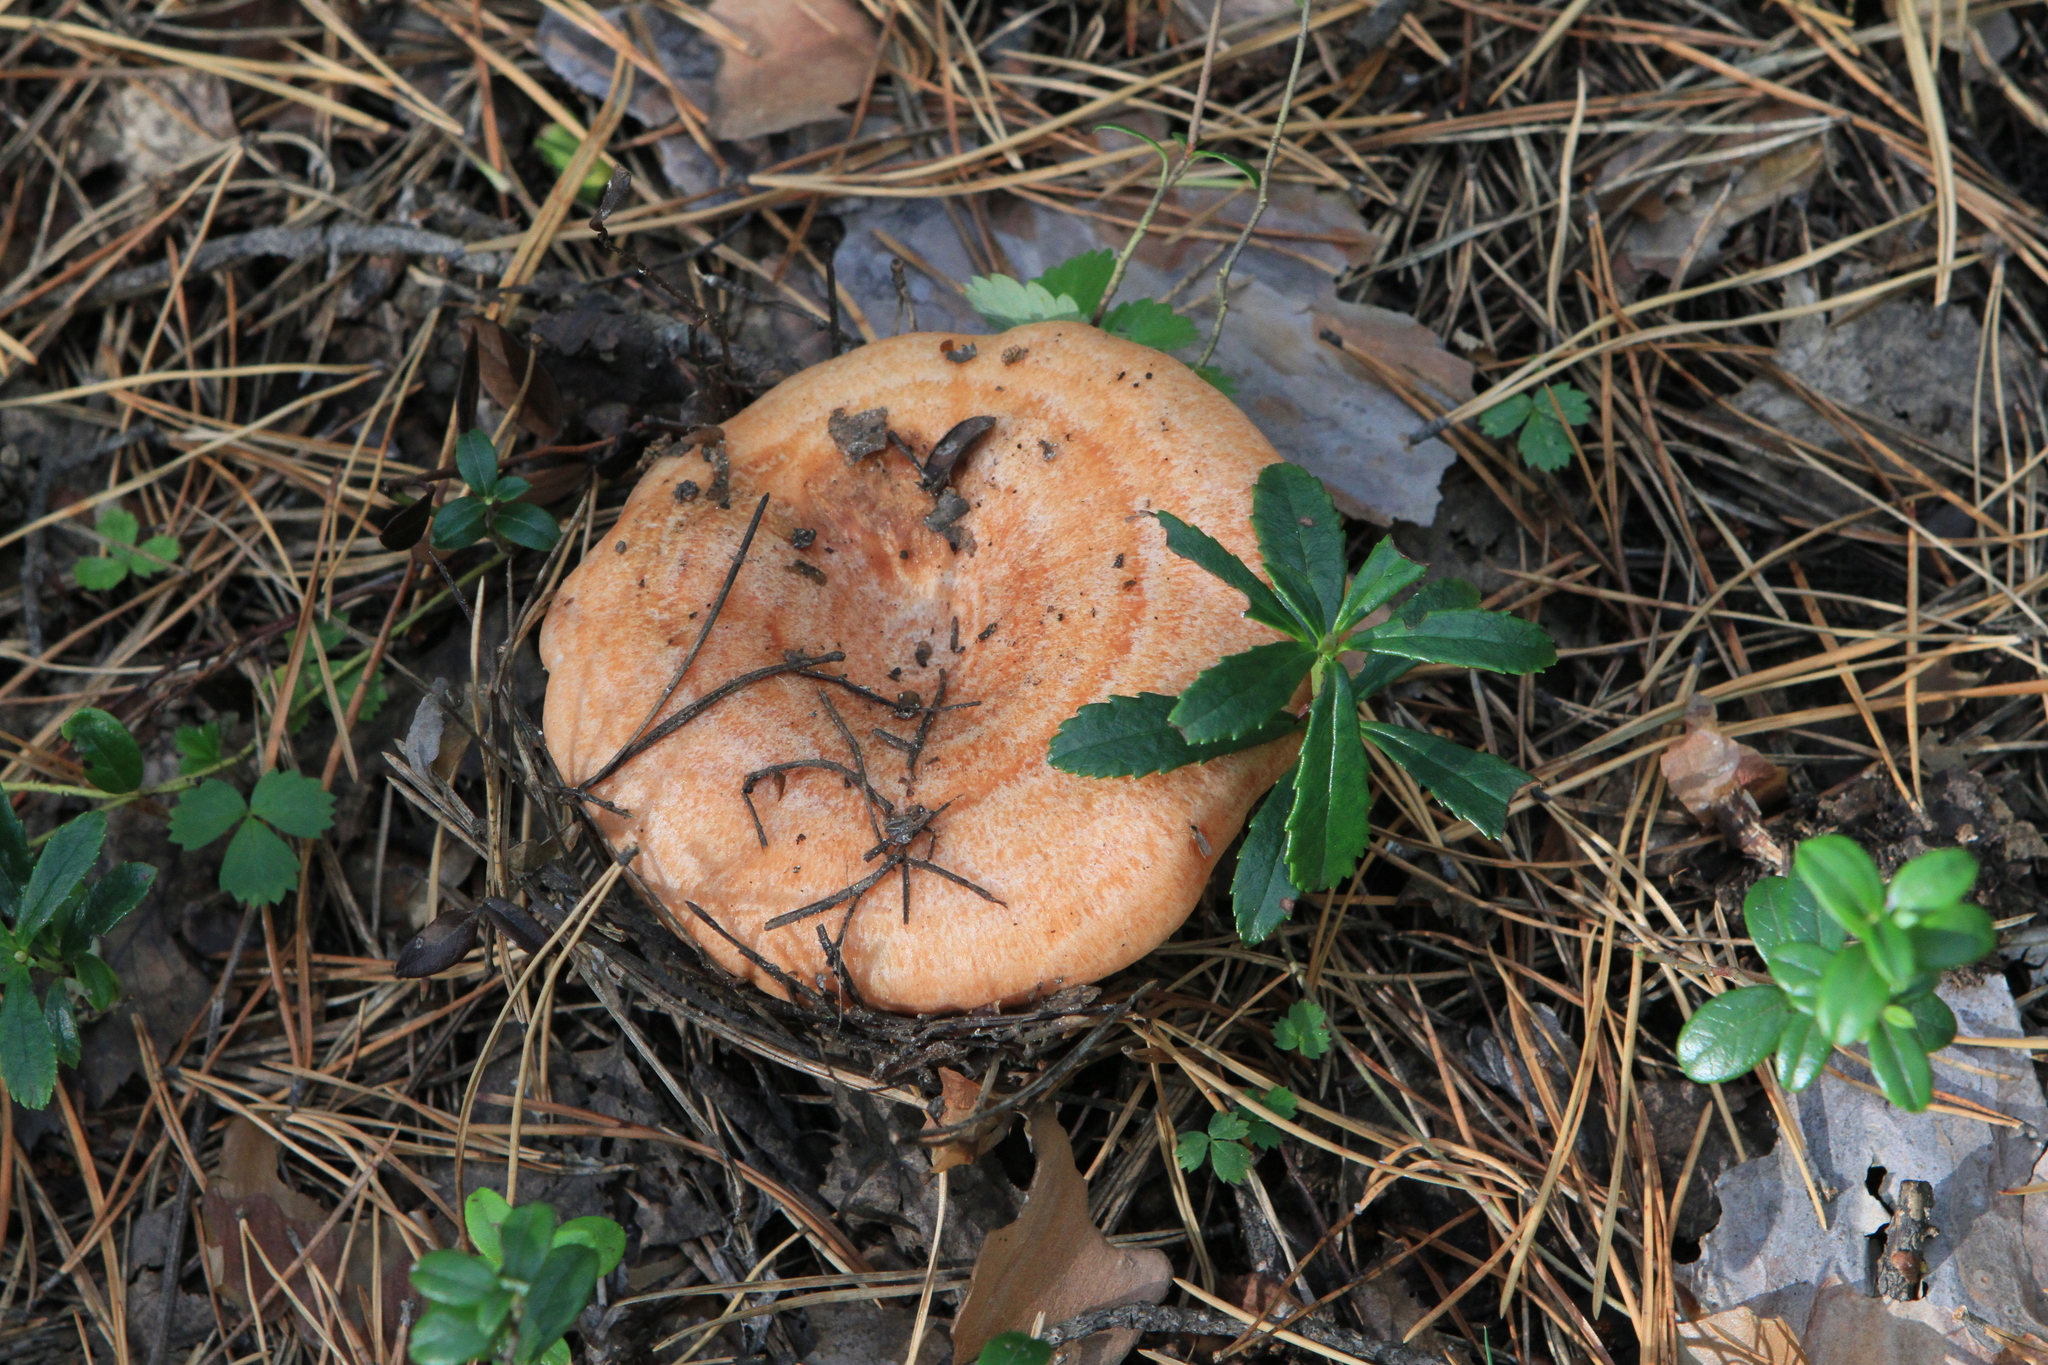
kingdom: Fungi
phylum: Basidiomycota
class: Agaricomycetes
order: Russulales
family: Russulaceae
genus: Lactarius
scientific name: Lactarius deliciosus
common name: Saffron milk-cap
